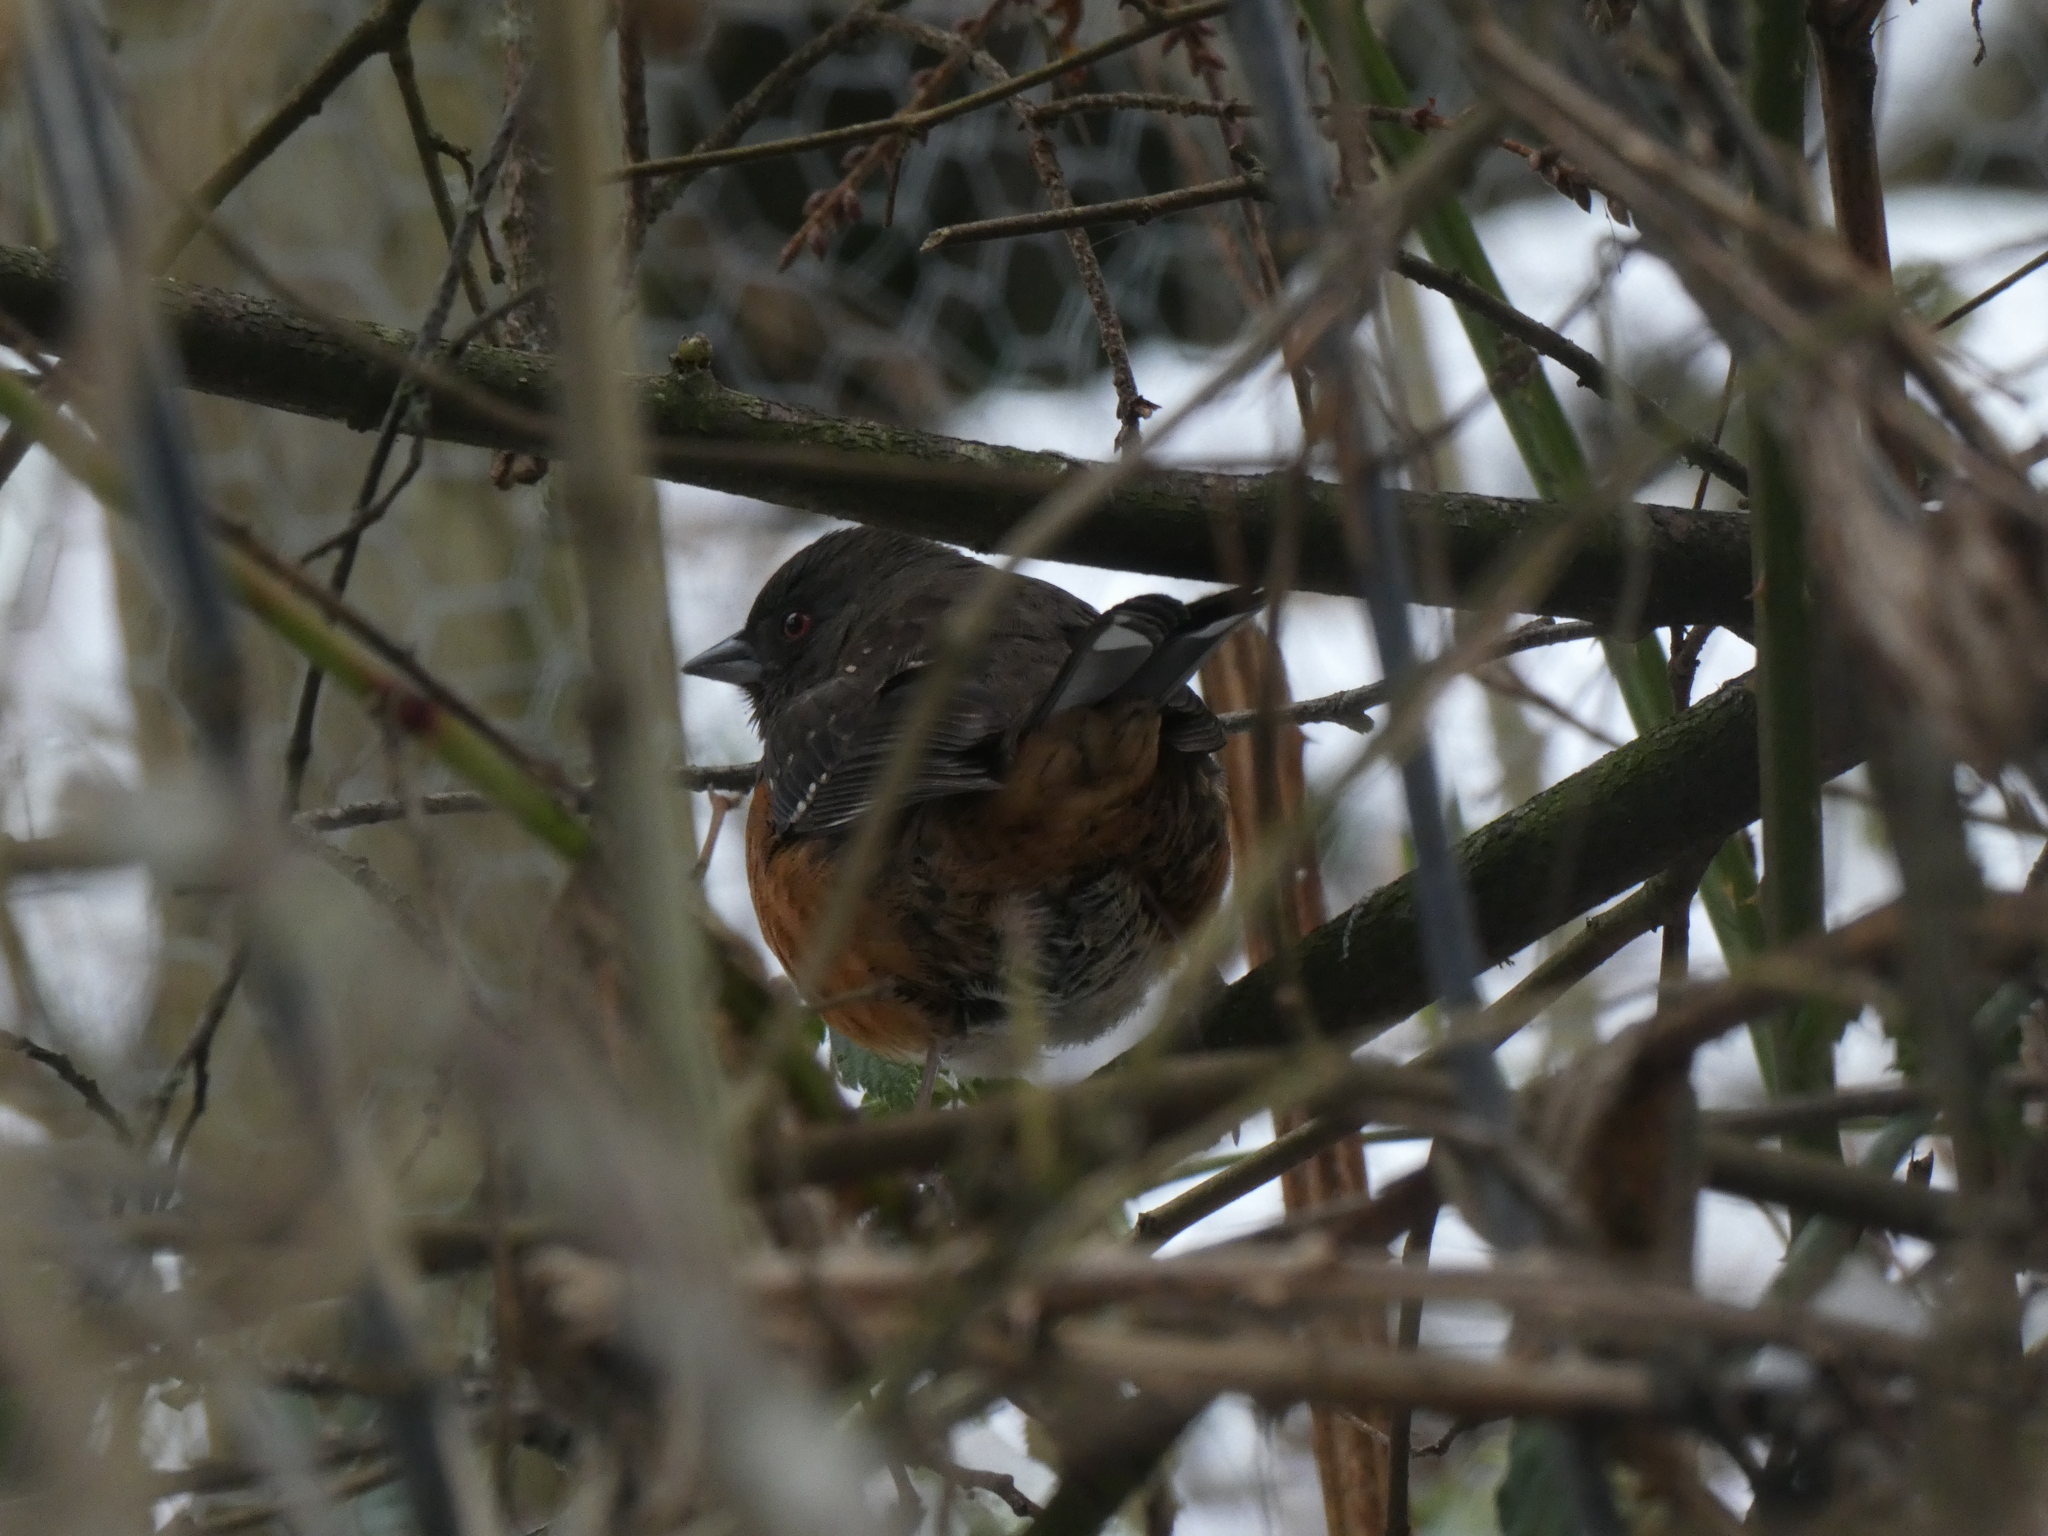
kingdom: Animalia
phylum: Chordata
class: Aves
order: Passeriformes
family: Passerellidae
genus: Pipilo
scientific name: Pipilo maculatus
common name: Spotted towhee
